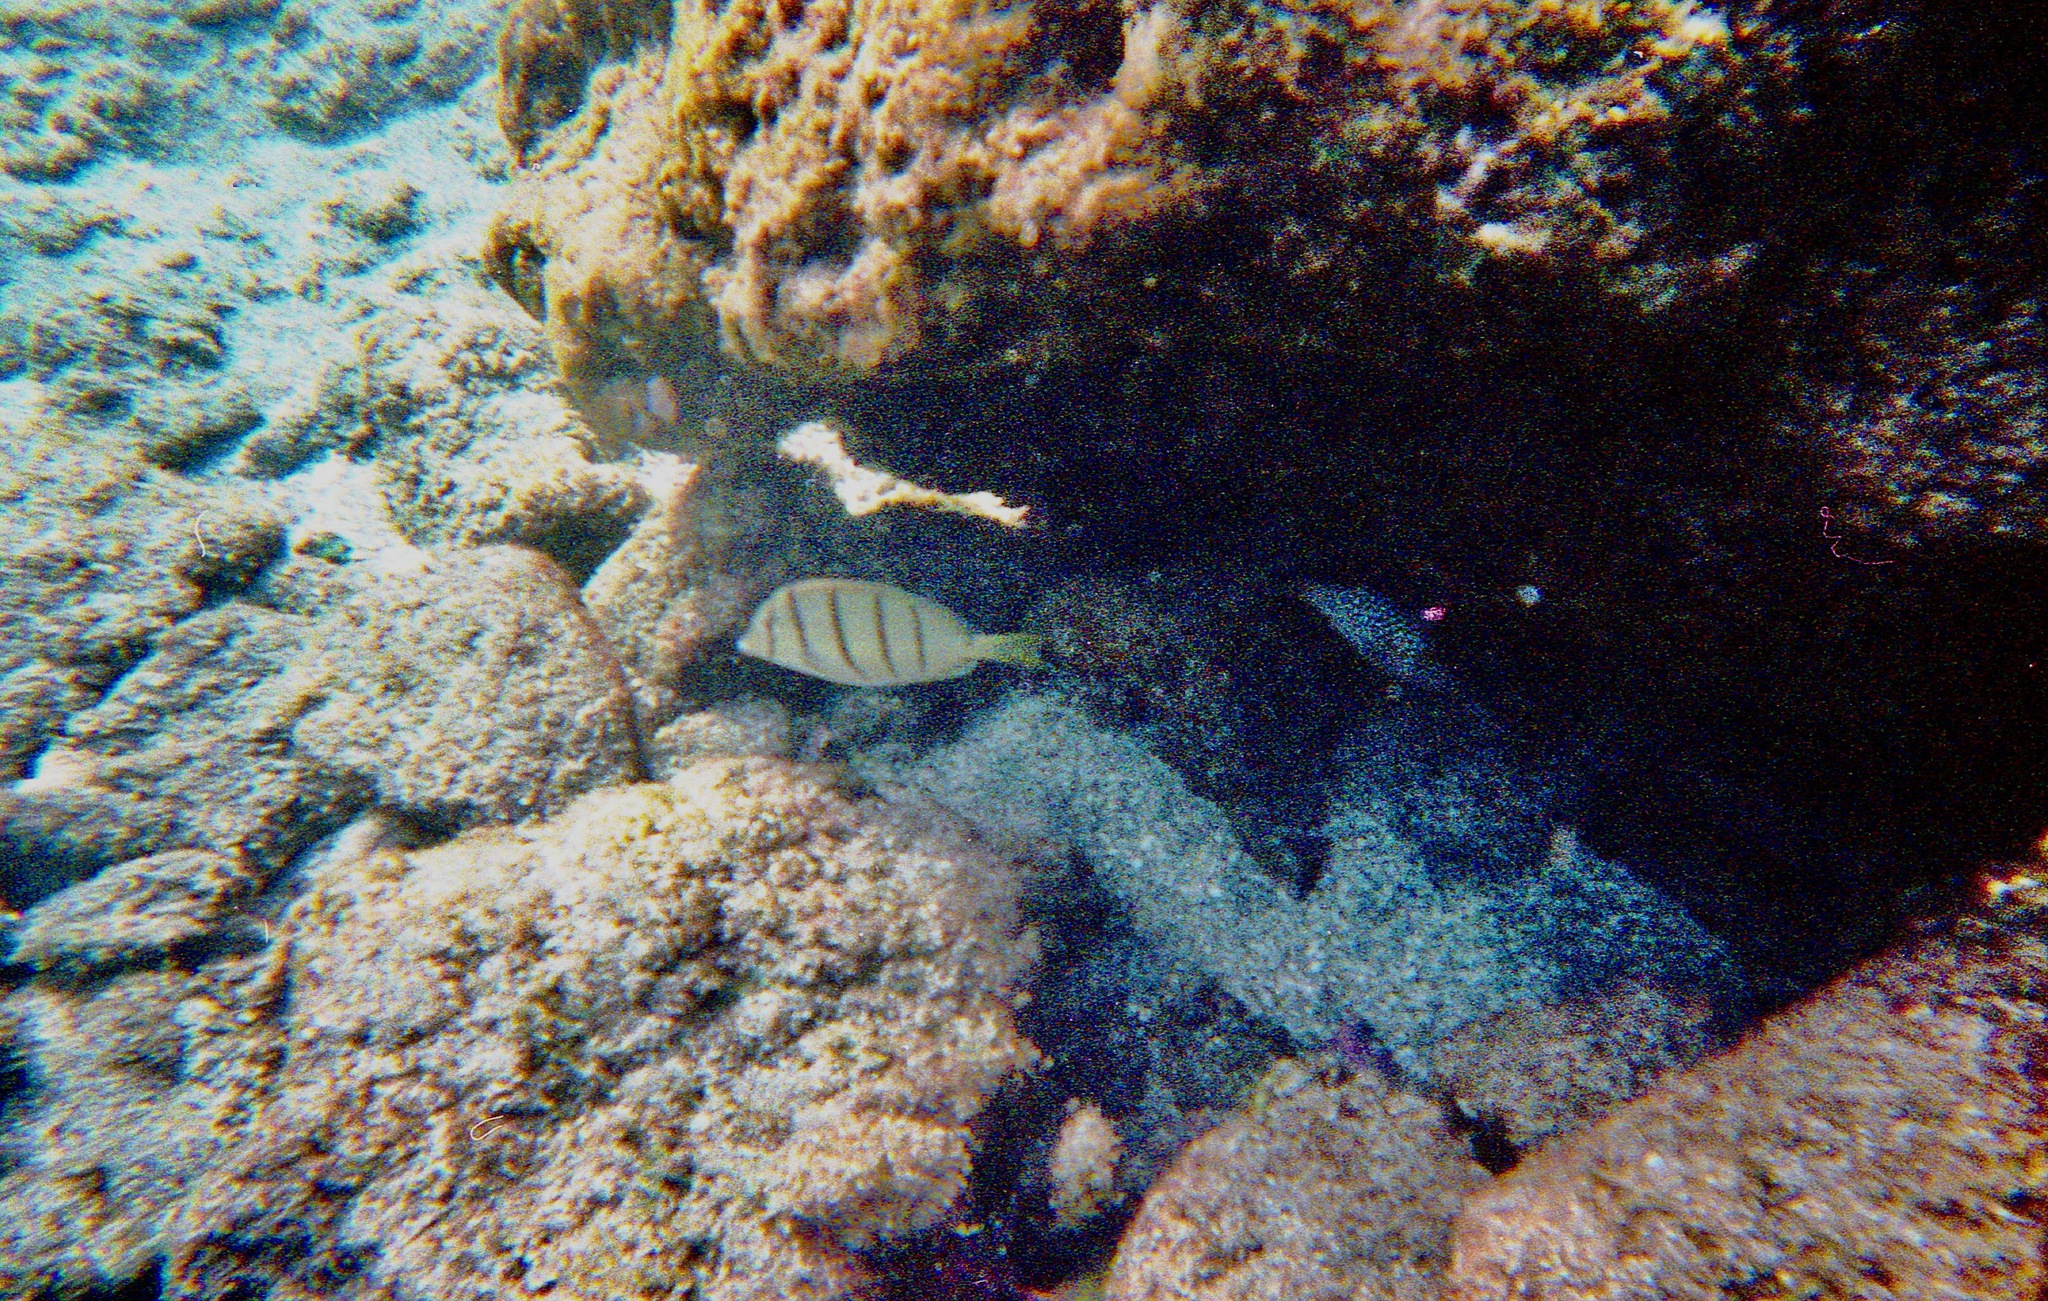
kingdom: Animalia
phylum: Chordata
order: Tetraodontiformes
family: Tetraodontidae
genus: Canthigaster
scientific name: Canthigaster jactator
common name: Hawaiian whitespotted toby
